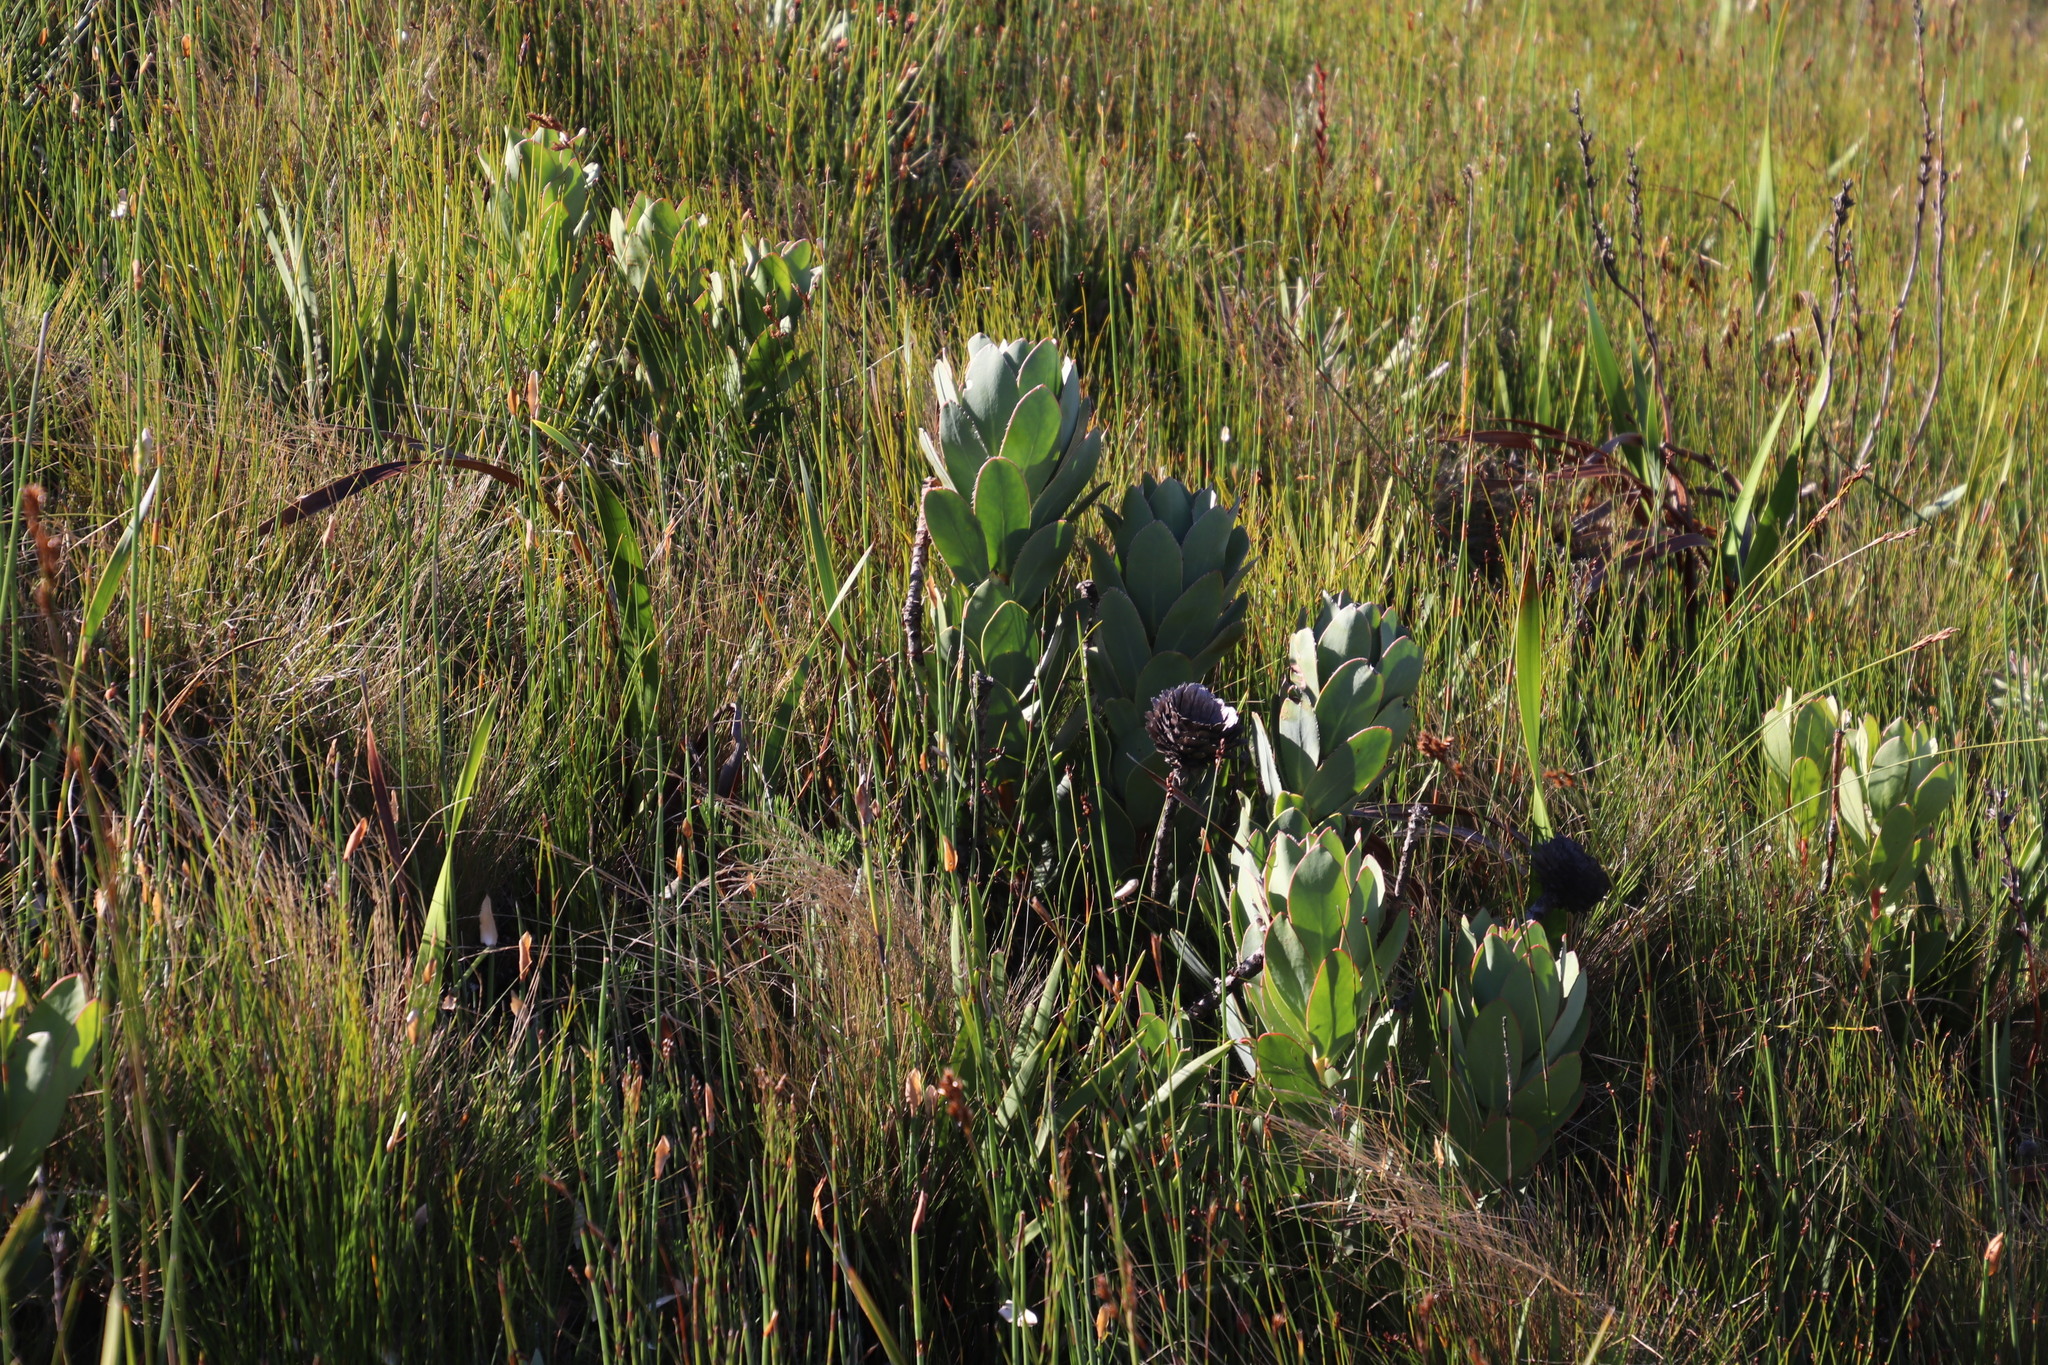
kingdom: Plantae
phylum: Tracheophyta
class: Magnoliopsida
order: Proteales
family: Proteaceae
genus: Protea
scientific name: Protea speciosa
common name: Brown-beard sugarbush
